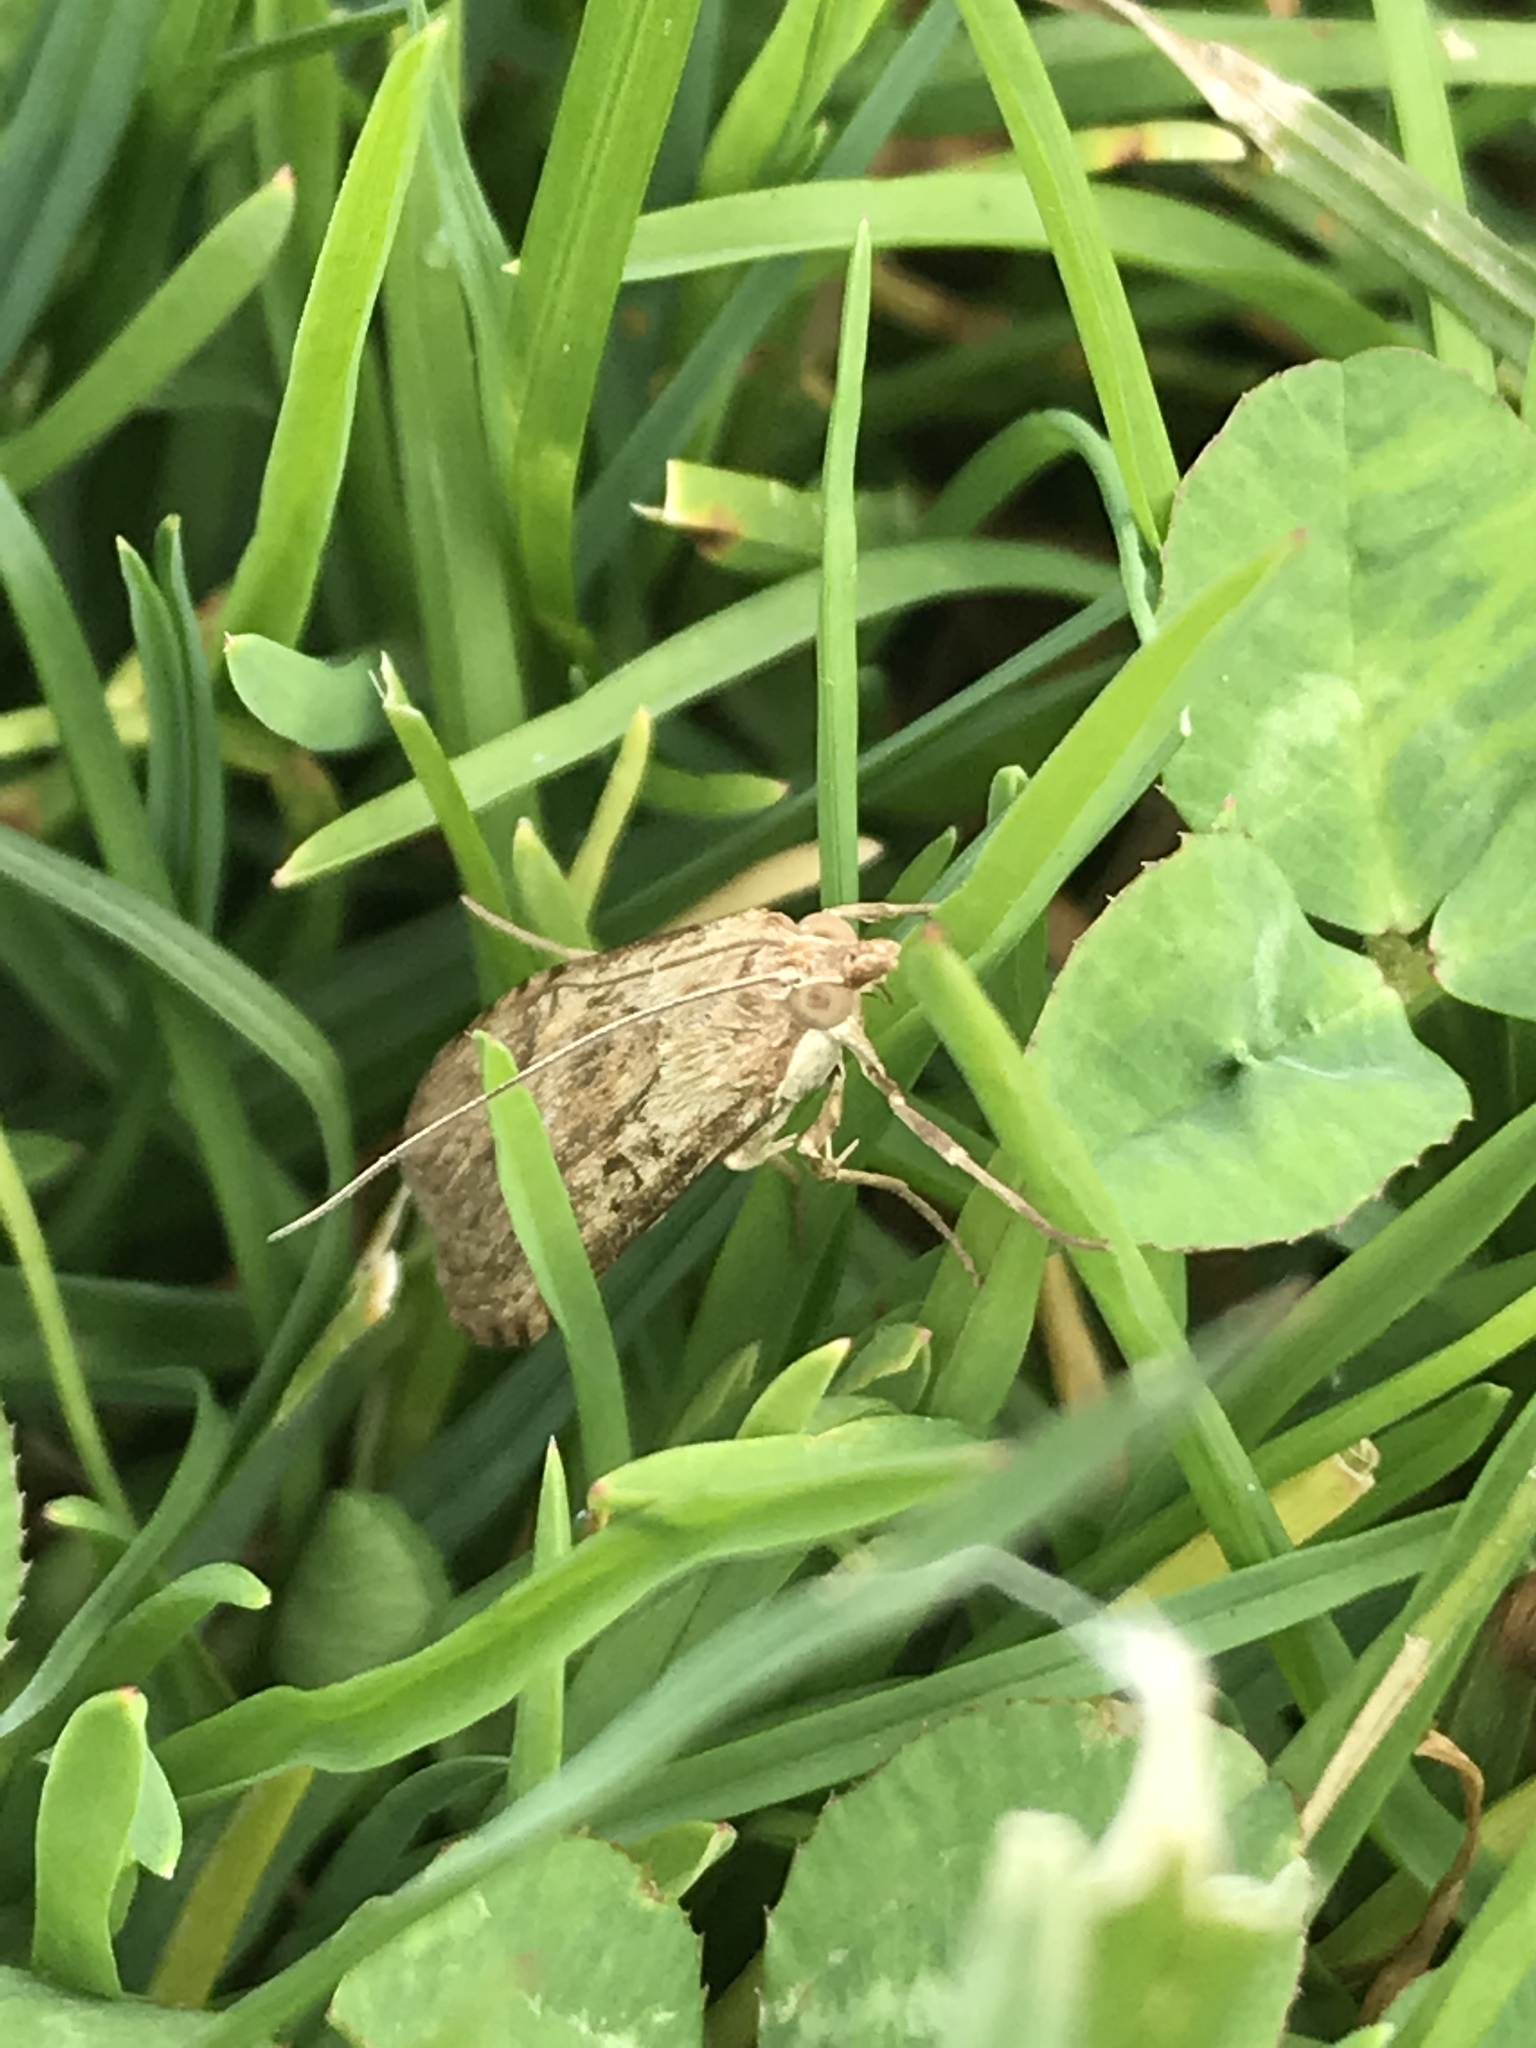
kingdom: Animalia
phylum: Arthropoda
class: Insecta
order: Lepidoptera
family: Crambidae
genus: Nomophila
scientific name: Nomophila nearctica
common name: American rush veneer
